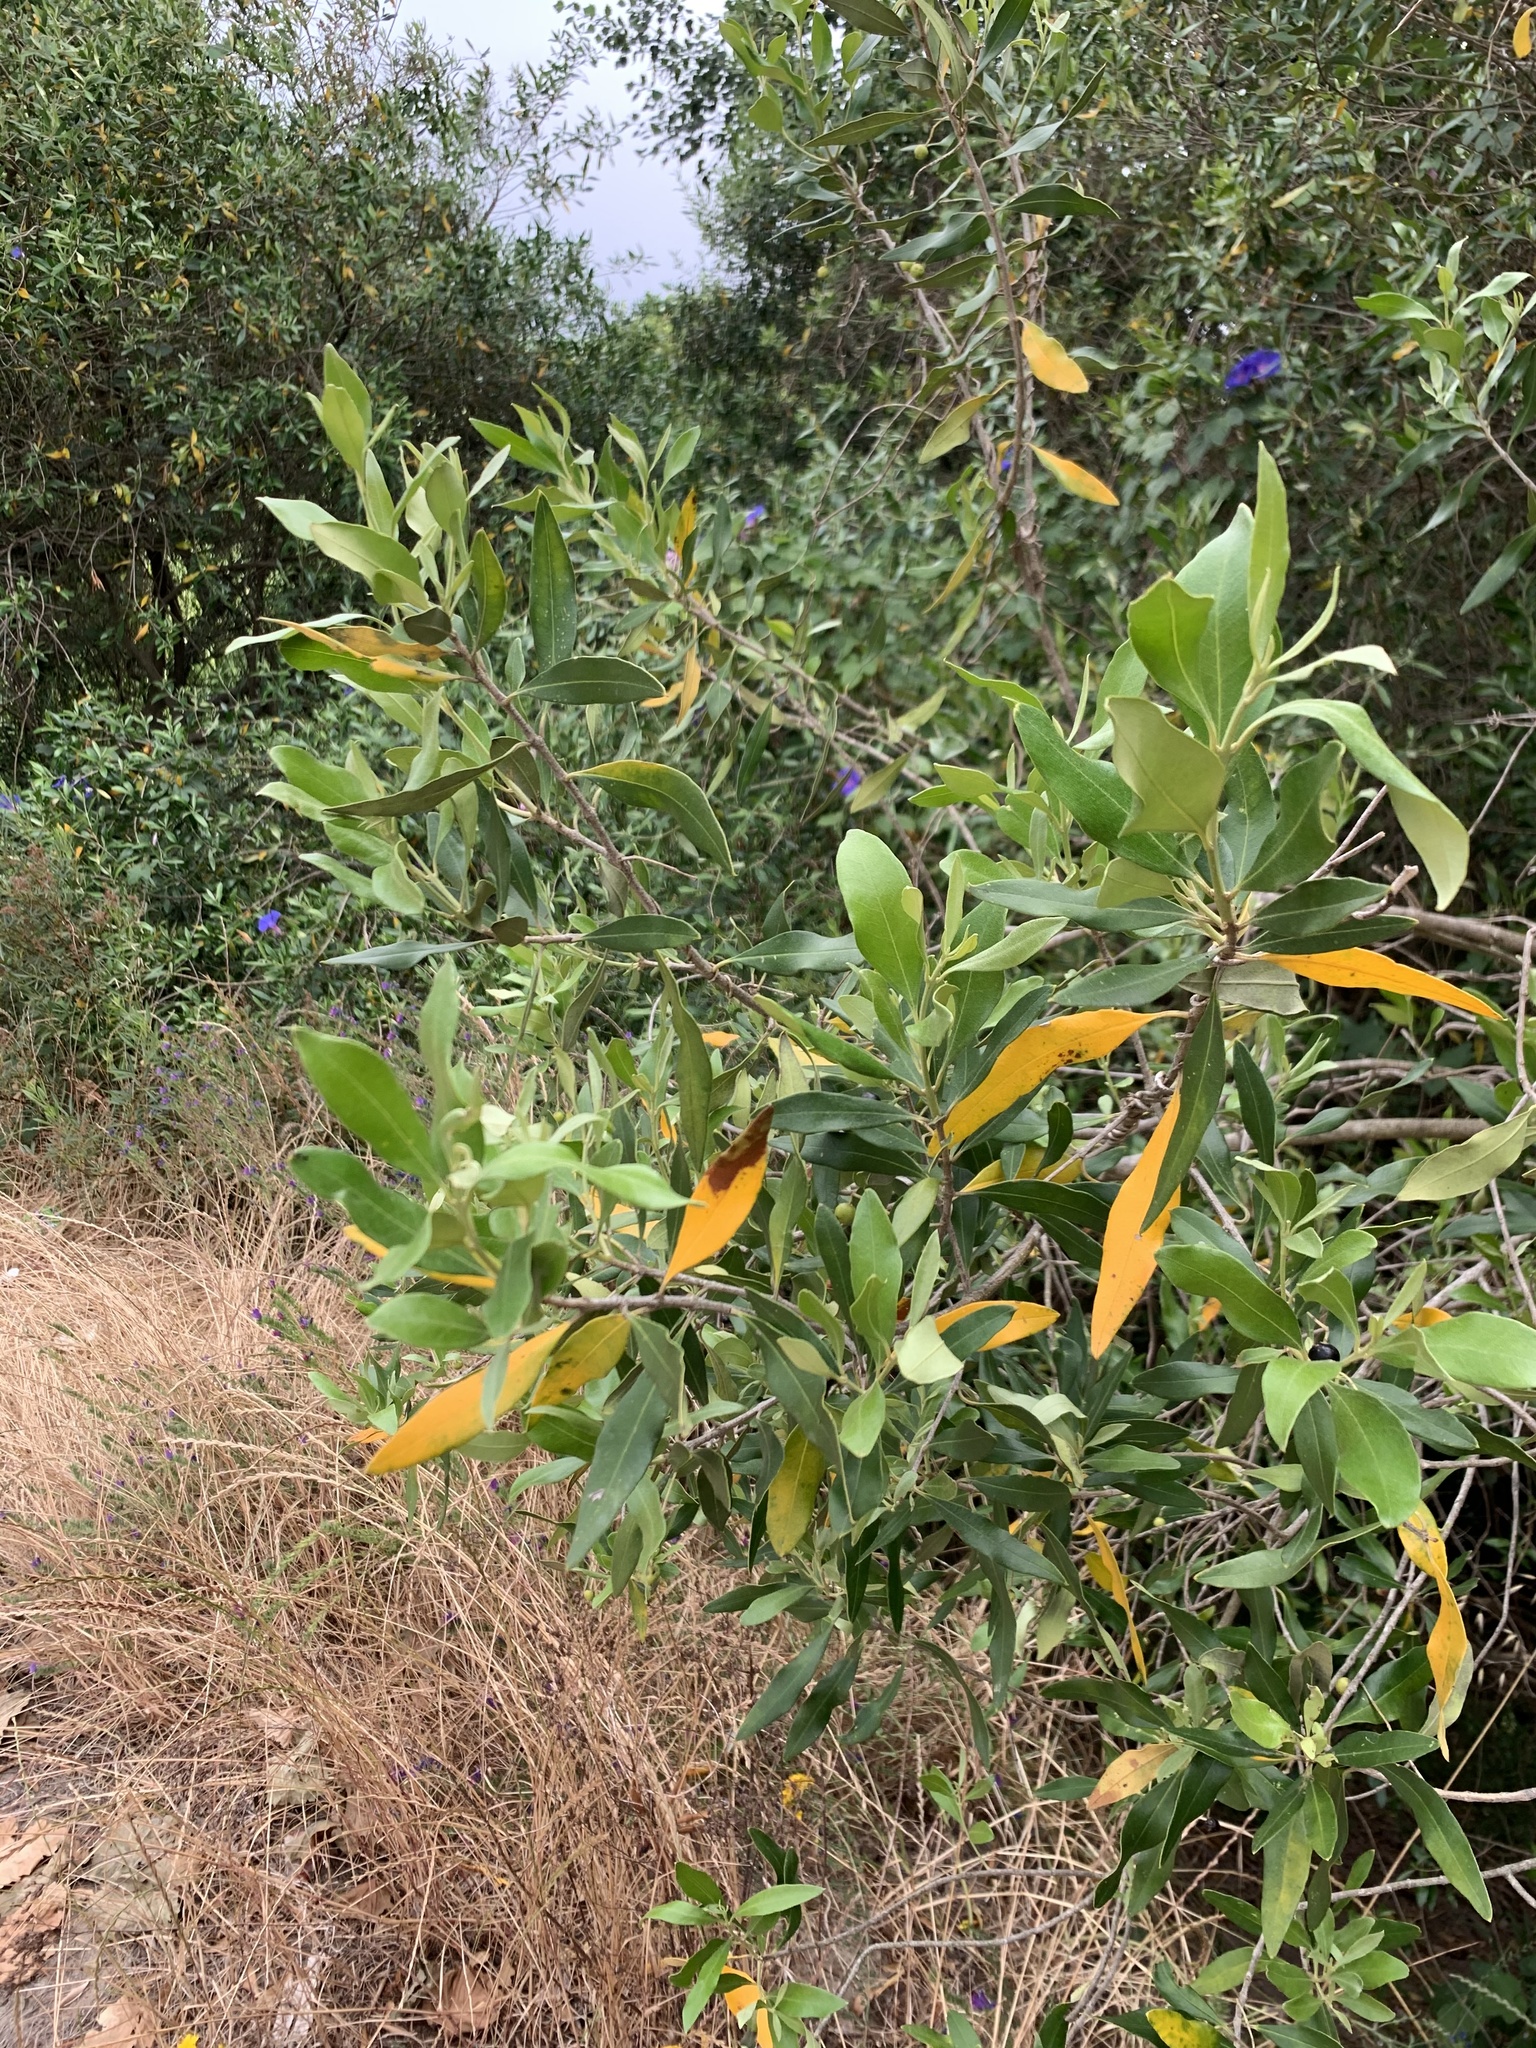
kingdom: Plantae
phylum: Tracheophyta
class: Magnoliopsida
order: Lamiales
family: Oleaceae
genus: Olea
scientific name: Olea europaea
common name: Olive
